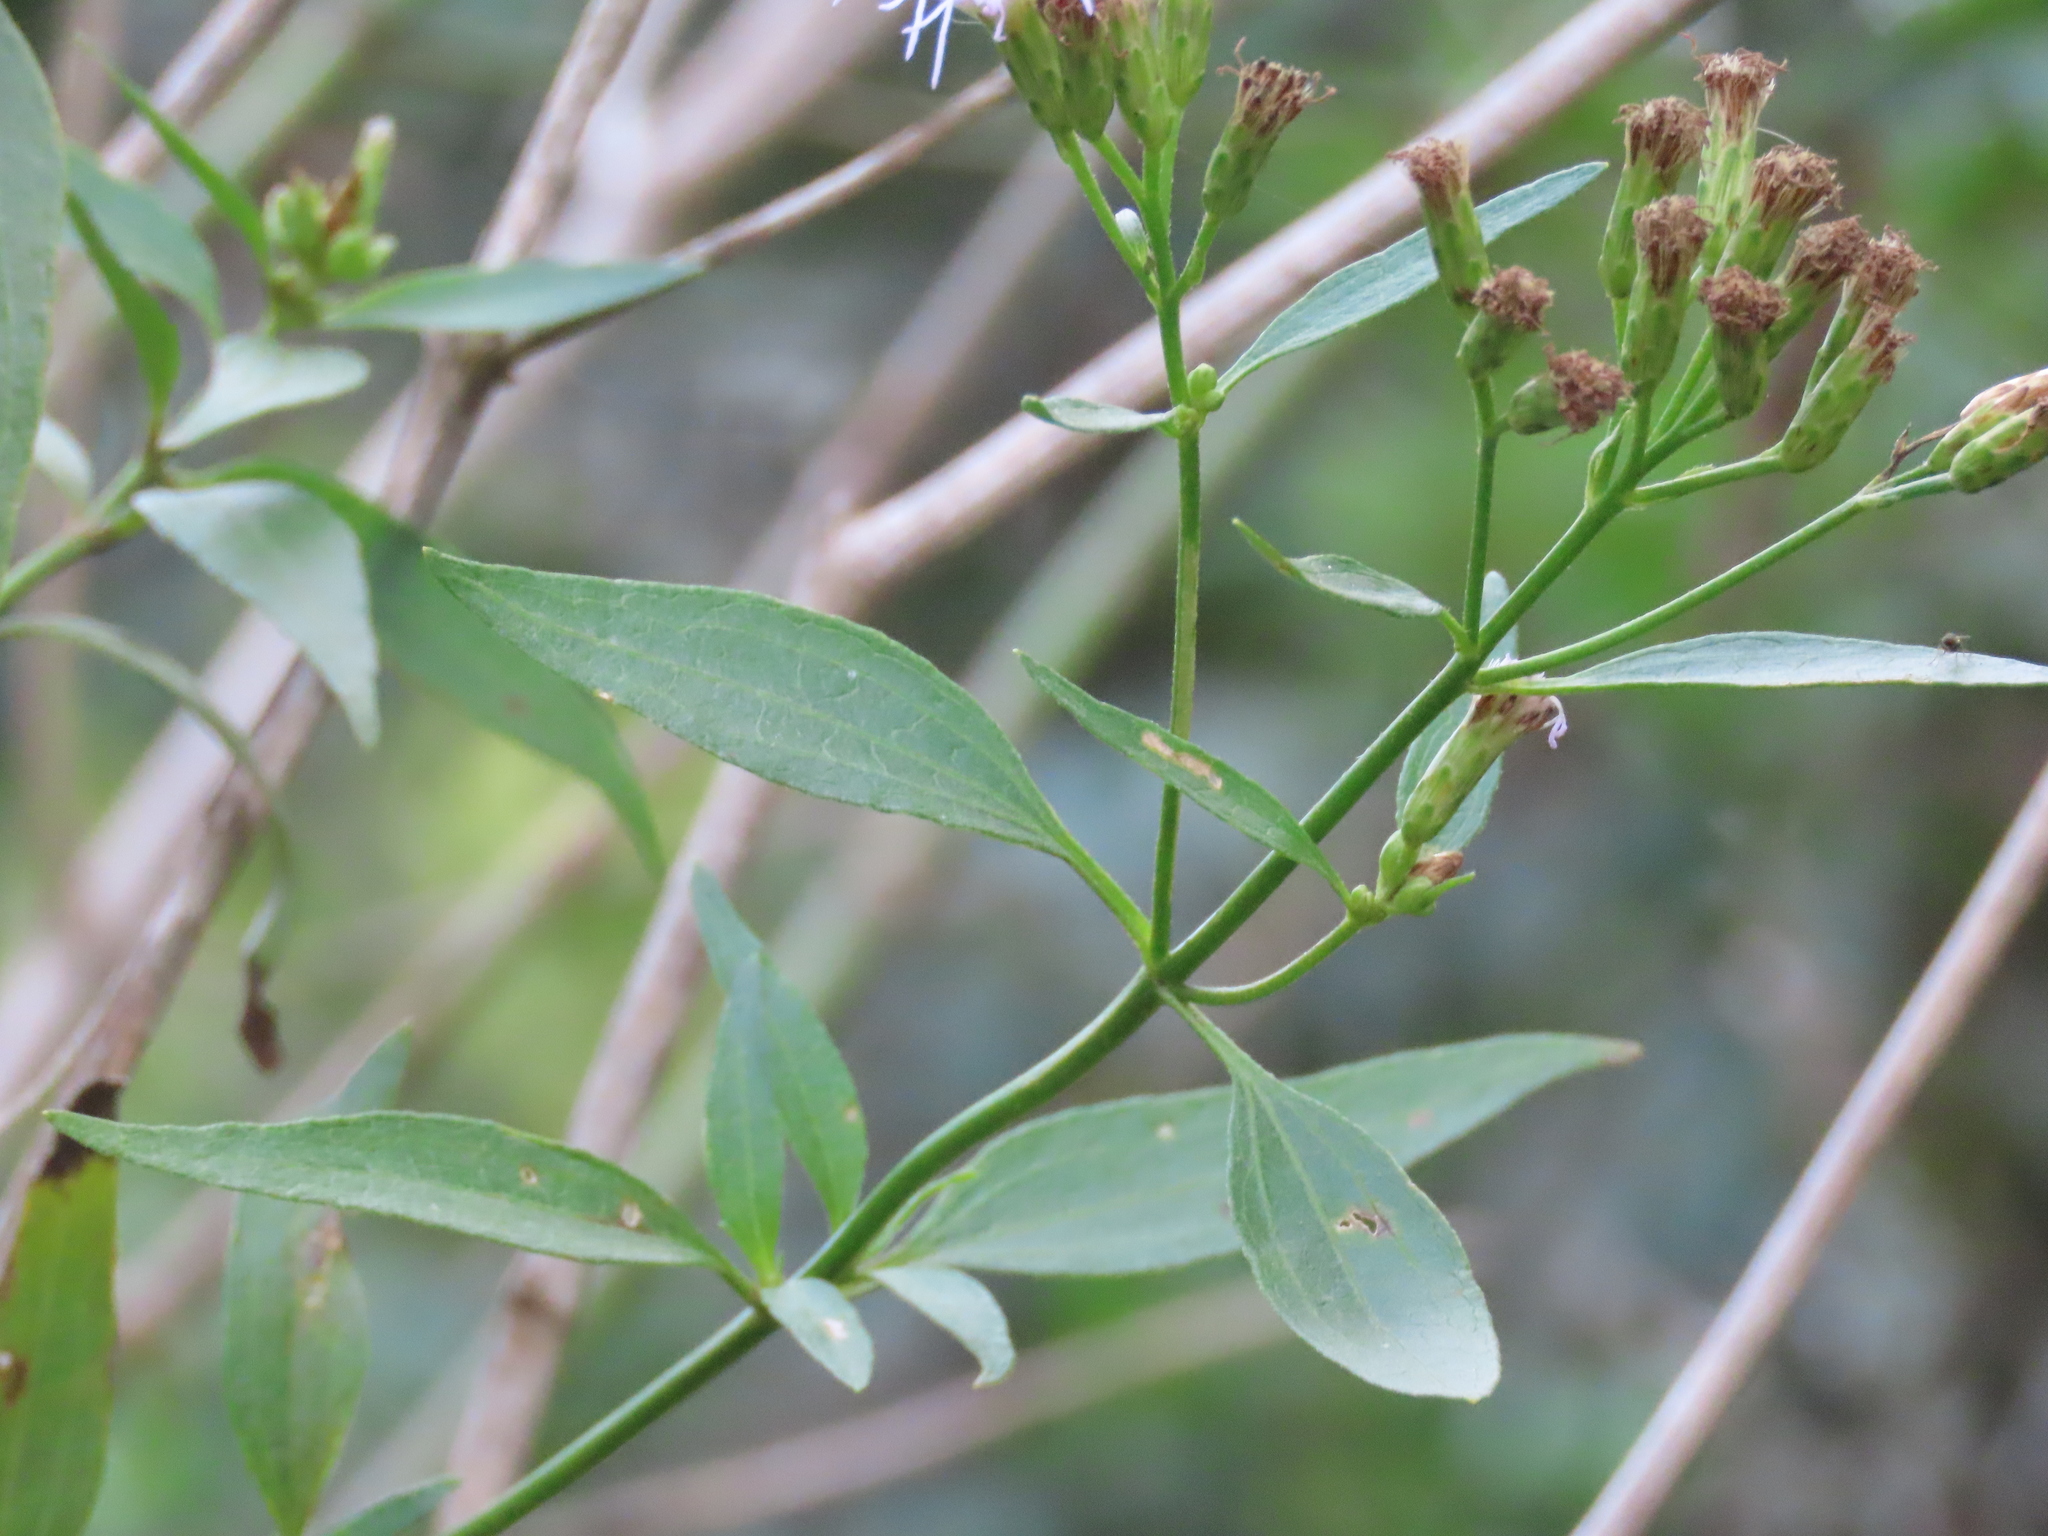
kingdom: Plantae
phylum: Tracheophyta
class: Magnoliopsida
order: Asterales
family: Asteraceae
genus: Chromolaena
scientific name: Chromolaena christieana
